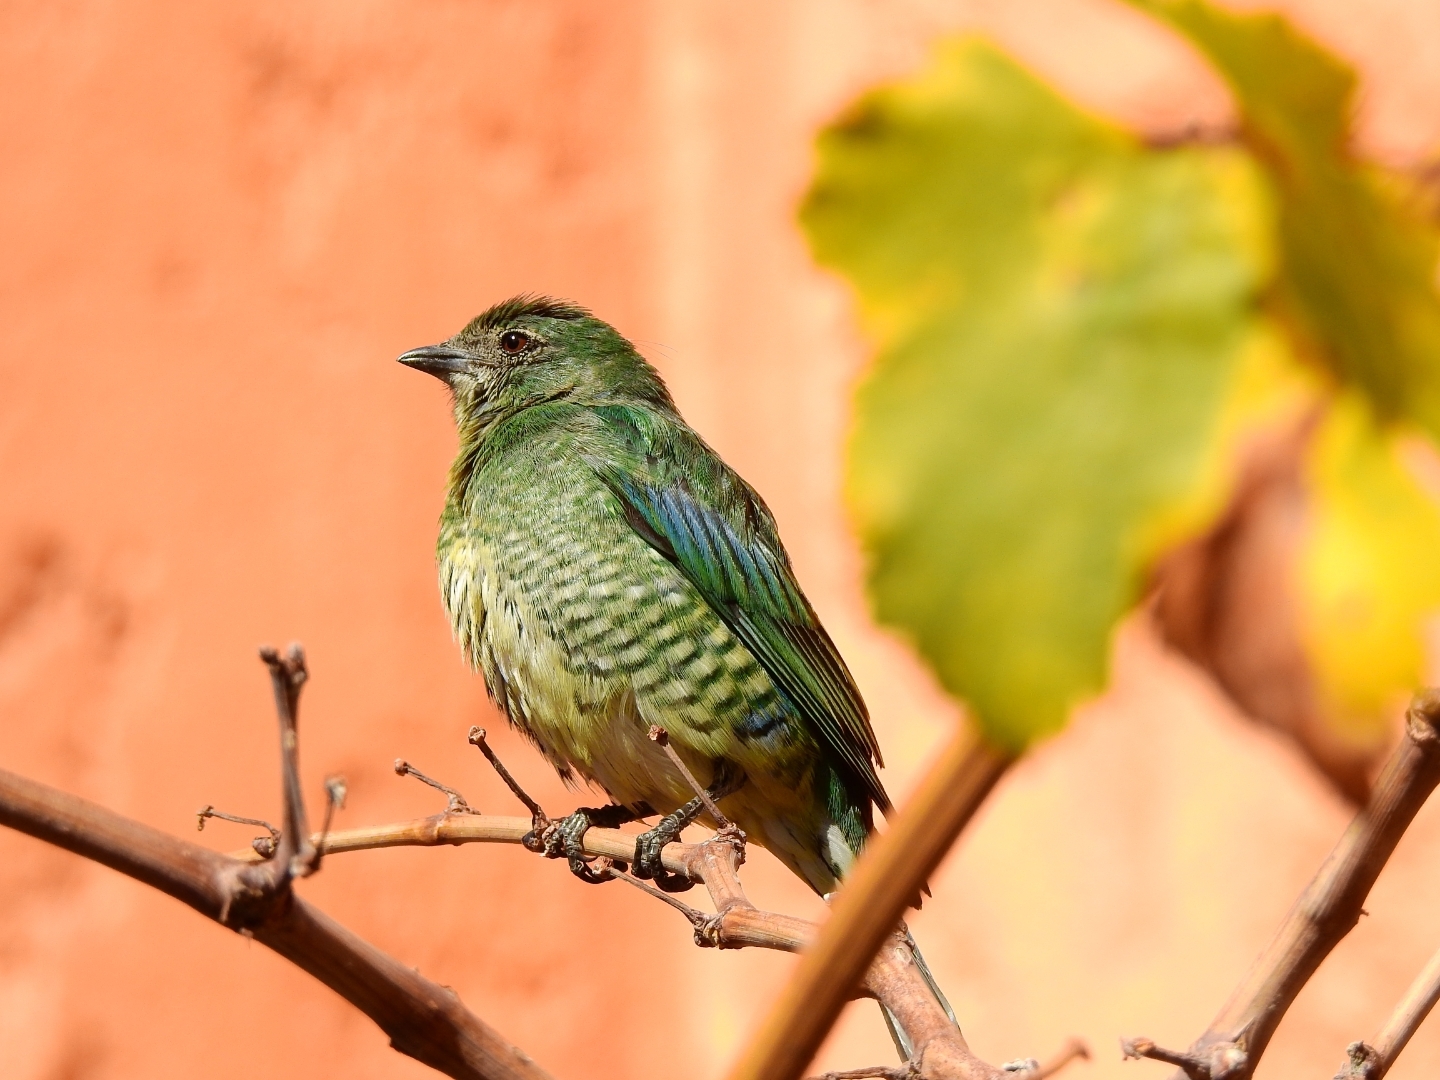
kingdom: Animalia
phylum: Chordata
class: Aves
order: Passeriformes
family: Thraupidae
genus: Tersina
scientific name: Tersina viridis
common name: Swallow tanager
